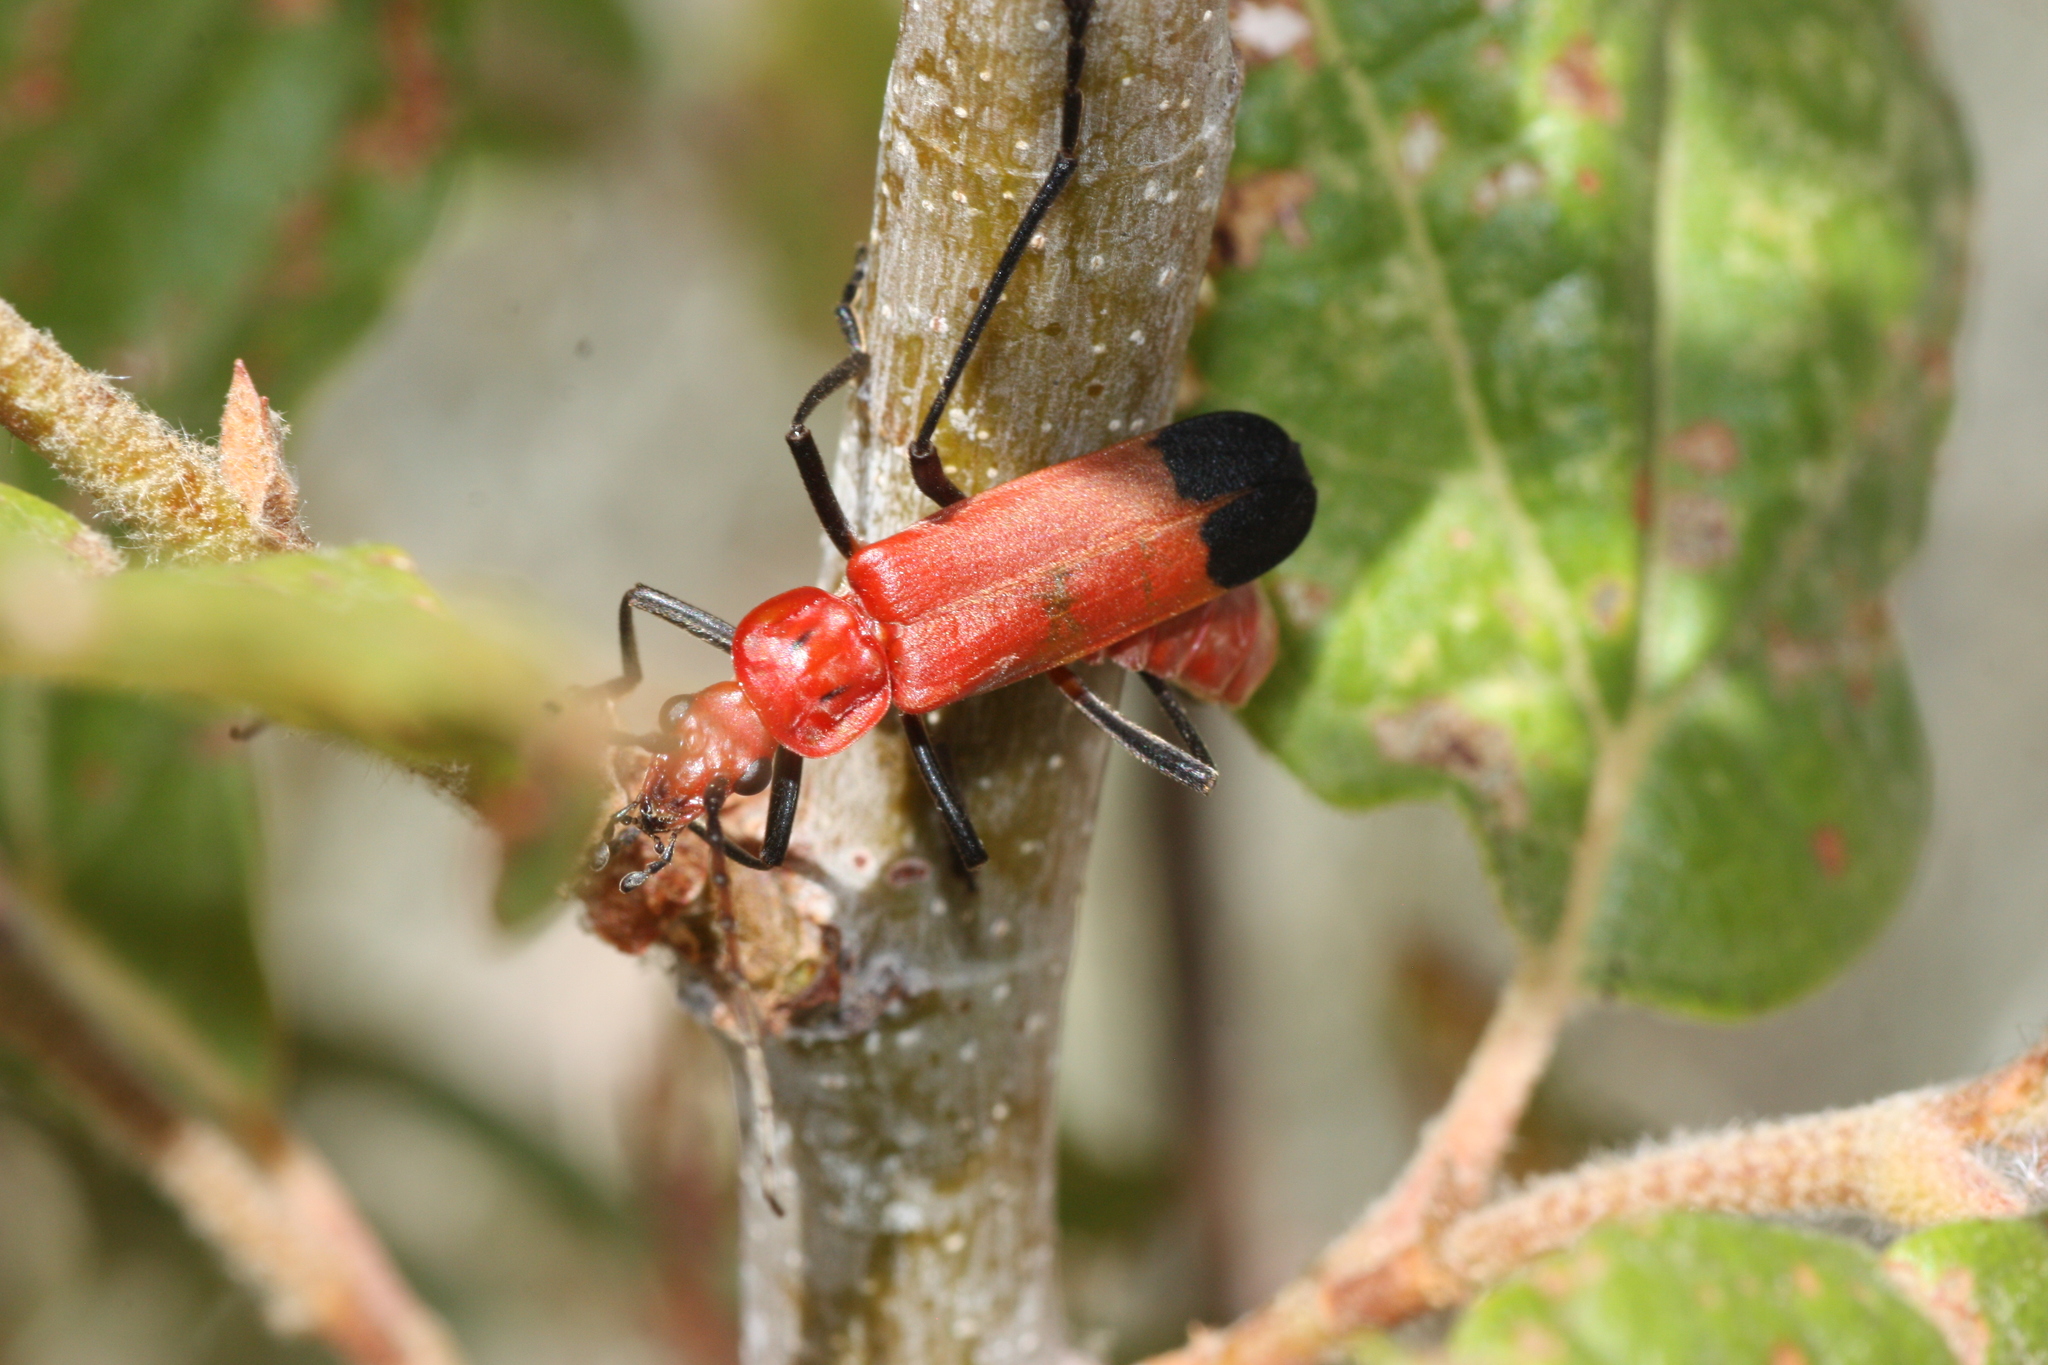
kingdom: Animalia
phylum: Arthropoda
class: Insecta
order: Coleoptera
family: Cantharidae
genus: Chauliognathus
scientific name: Chauliognathus lecontei
